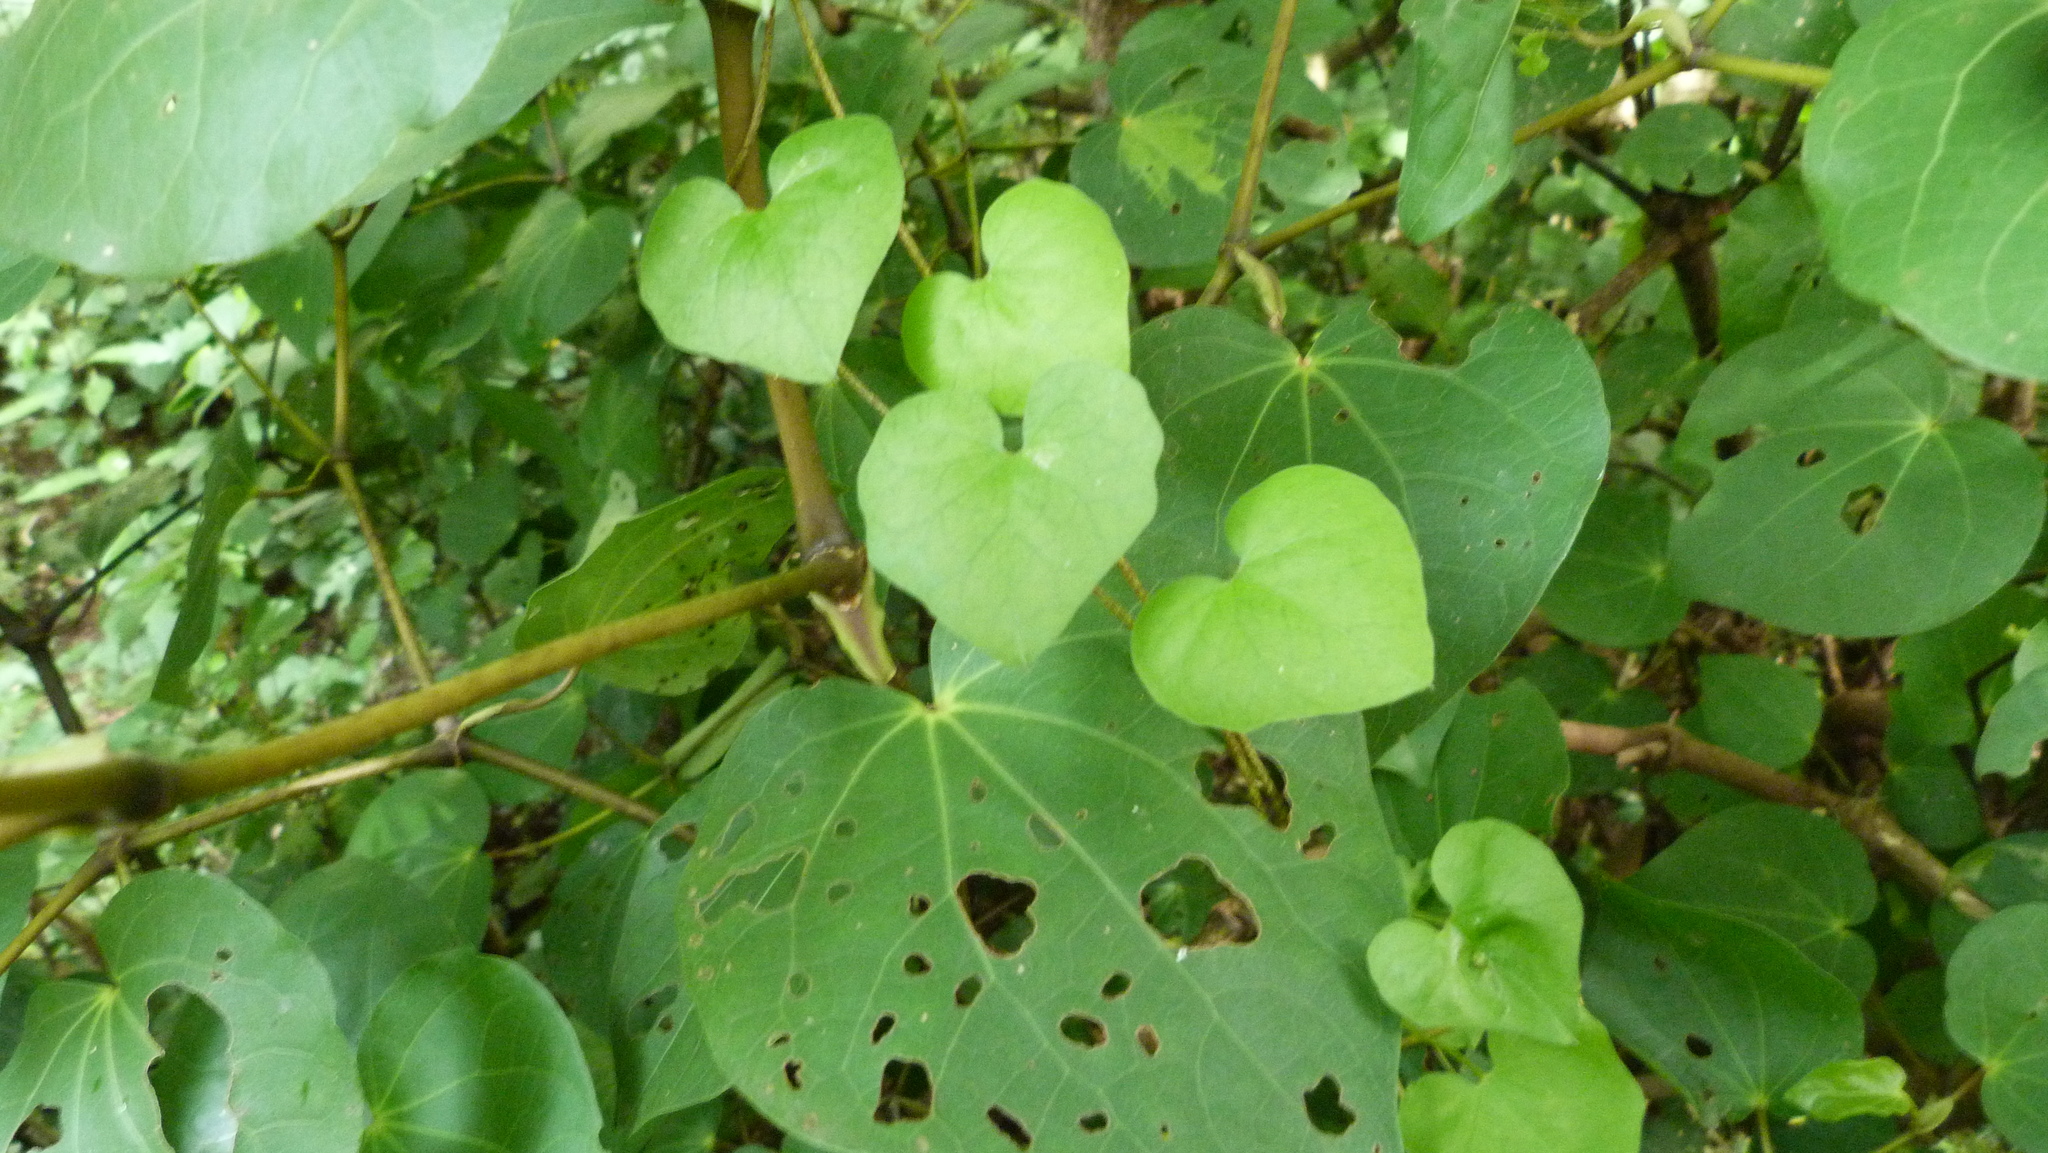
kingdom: Plantae
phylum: Tracheophyta
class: Magnoliopsida
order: Solanales
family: Convolvulaceae
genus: Calystegia
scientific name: Calystegia tuguriorum
